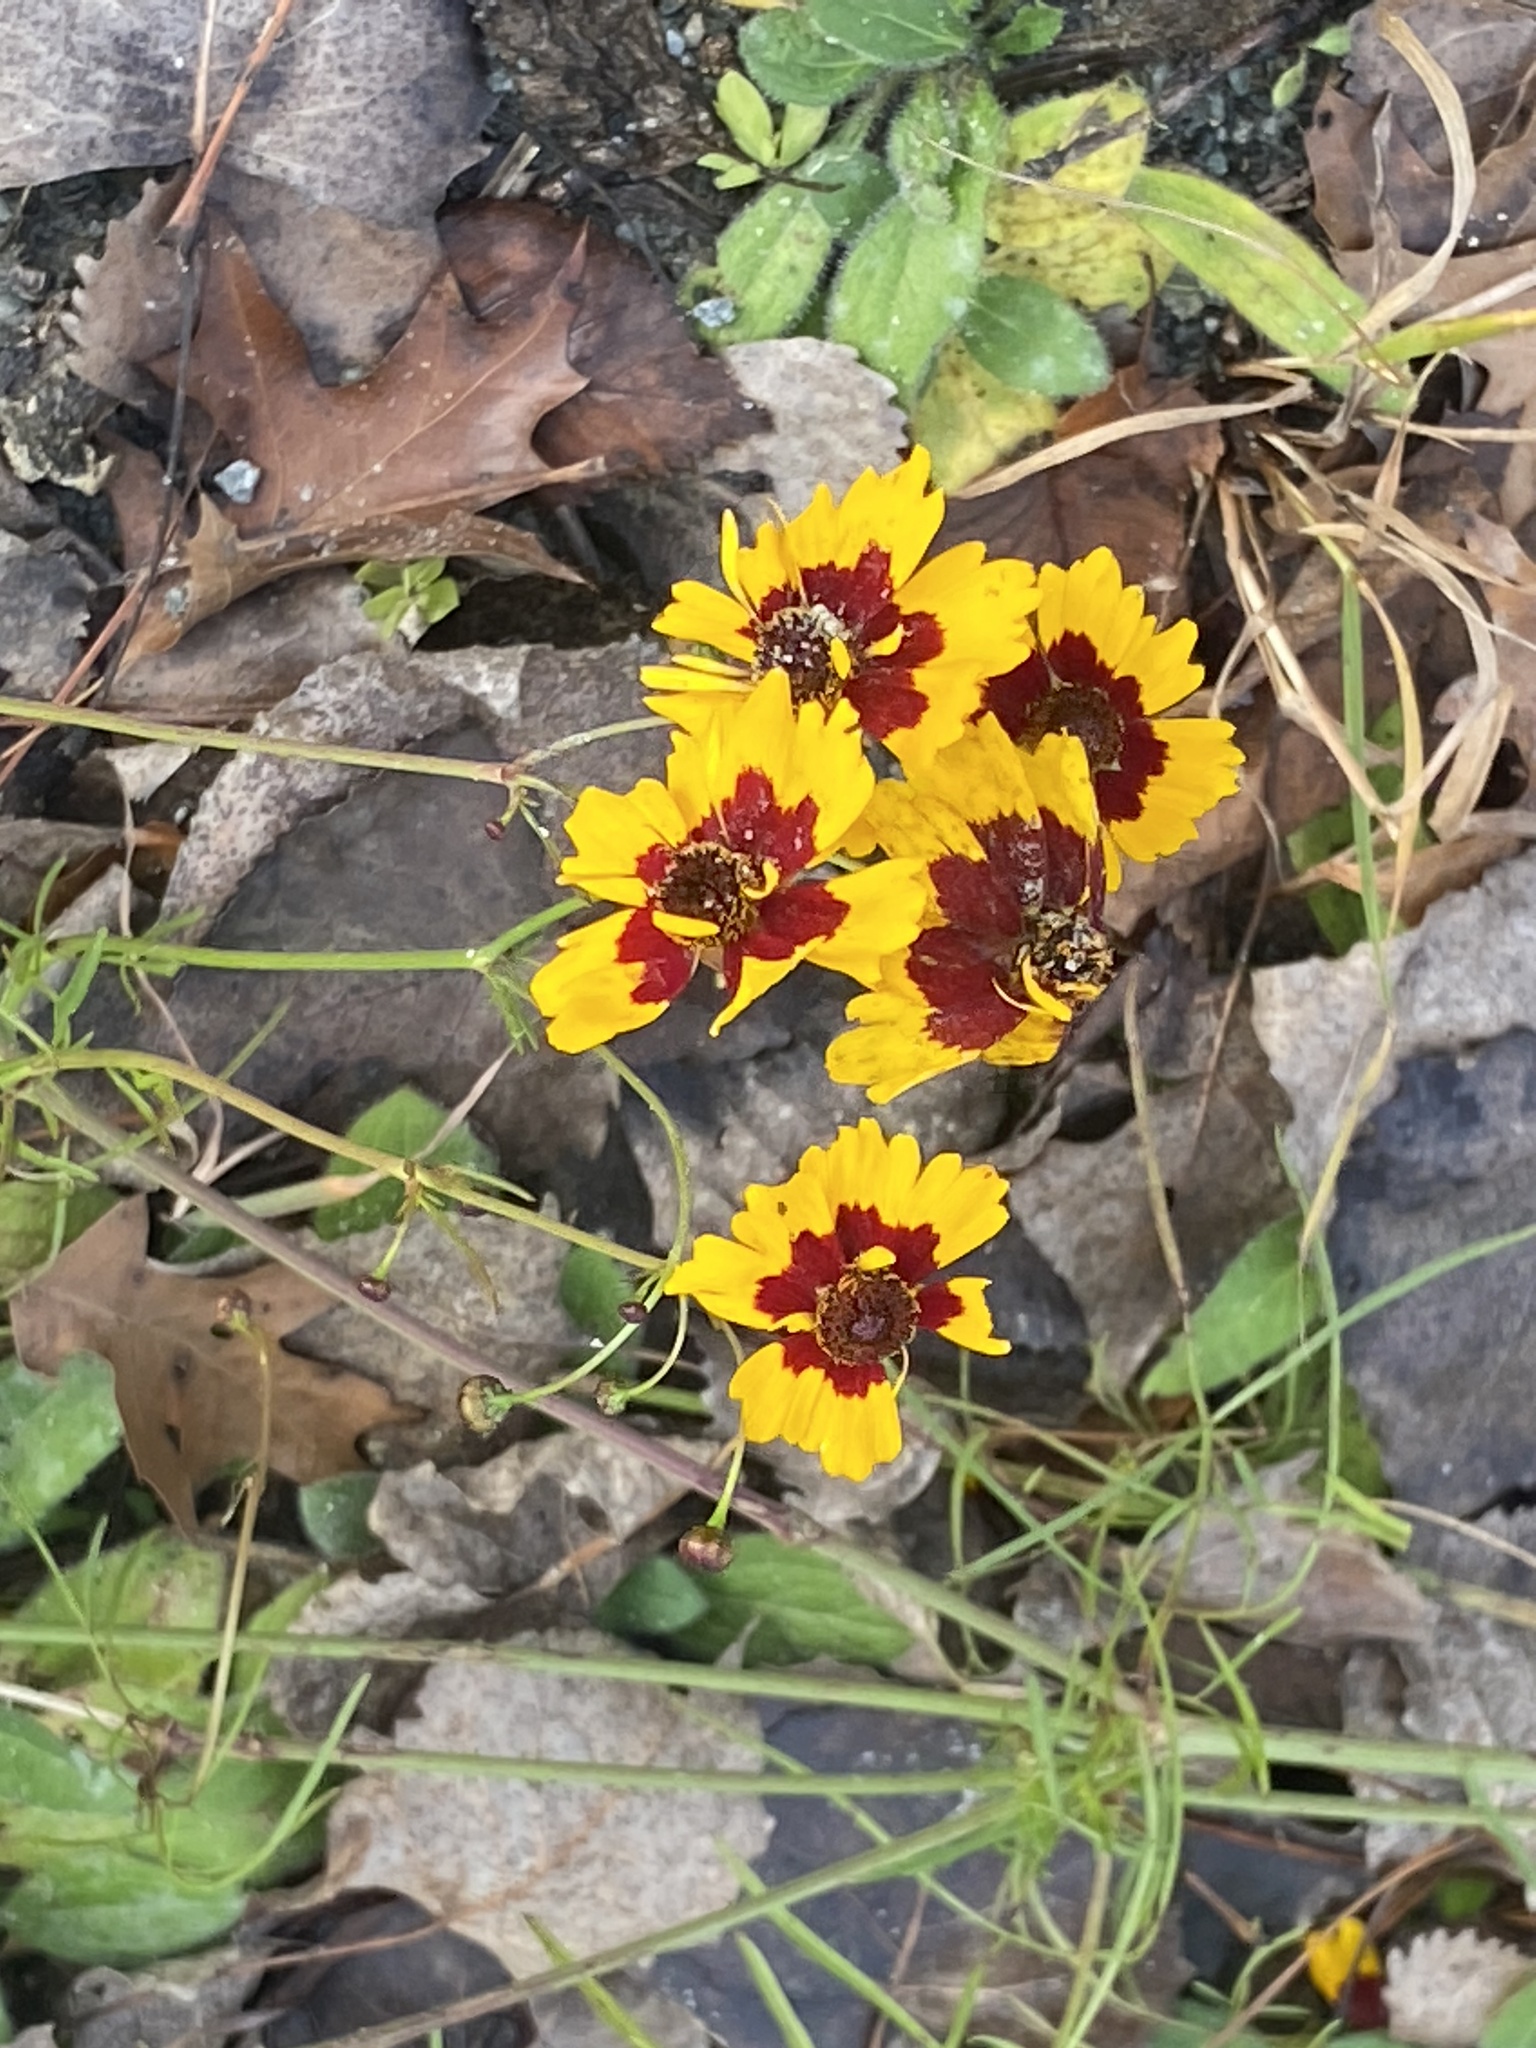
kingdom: Plantae
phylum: Tracheophyta
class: Magnoliopsida
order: Asterales
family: Asteraceae
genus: Coreopsis
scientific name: Coreopsis tinctoria
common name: Garden tickseed
